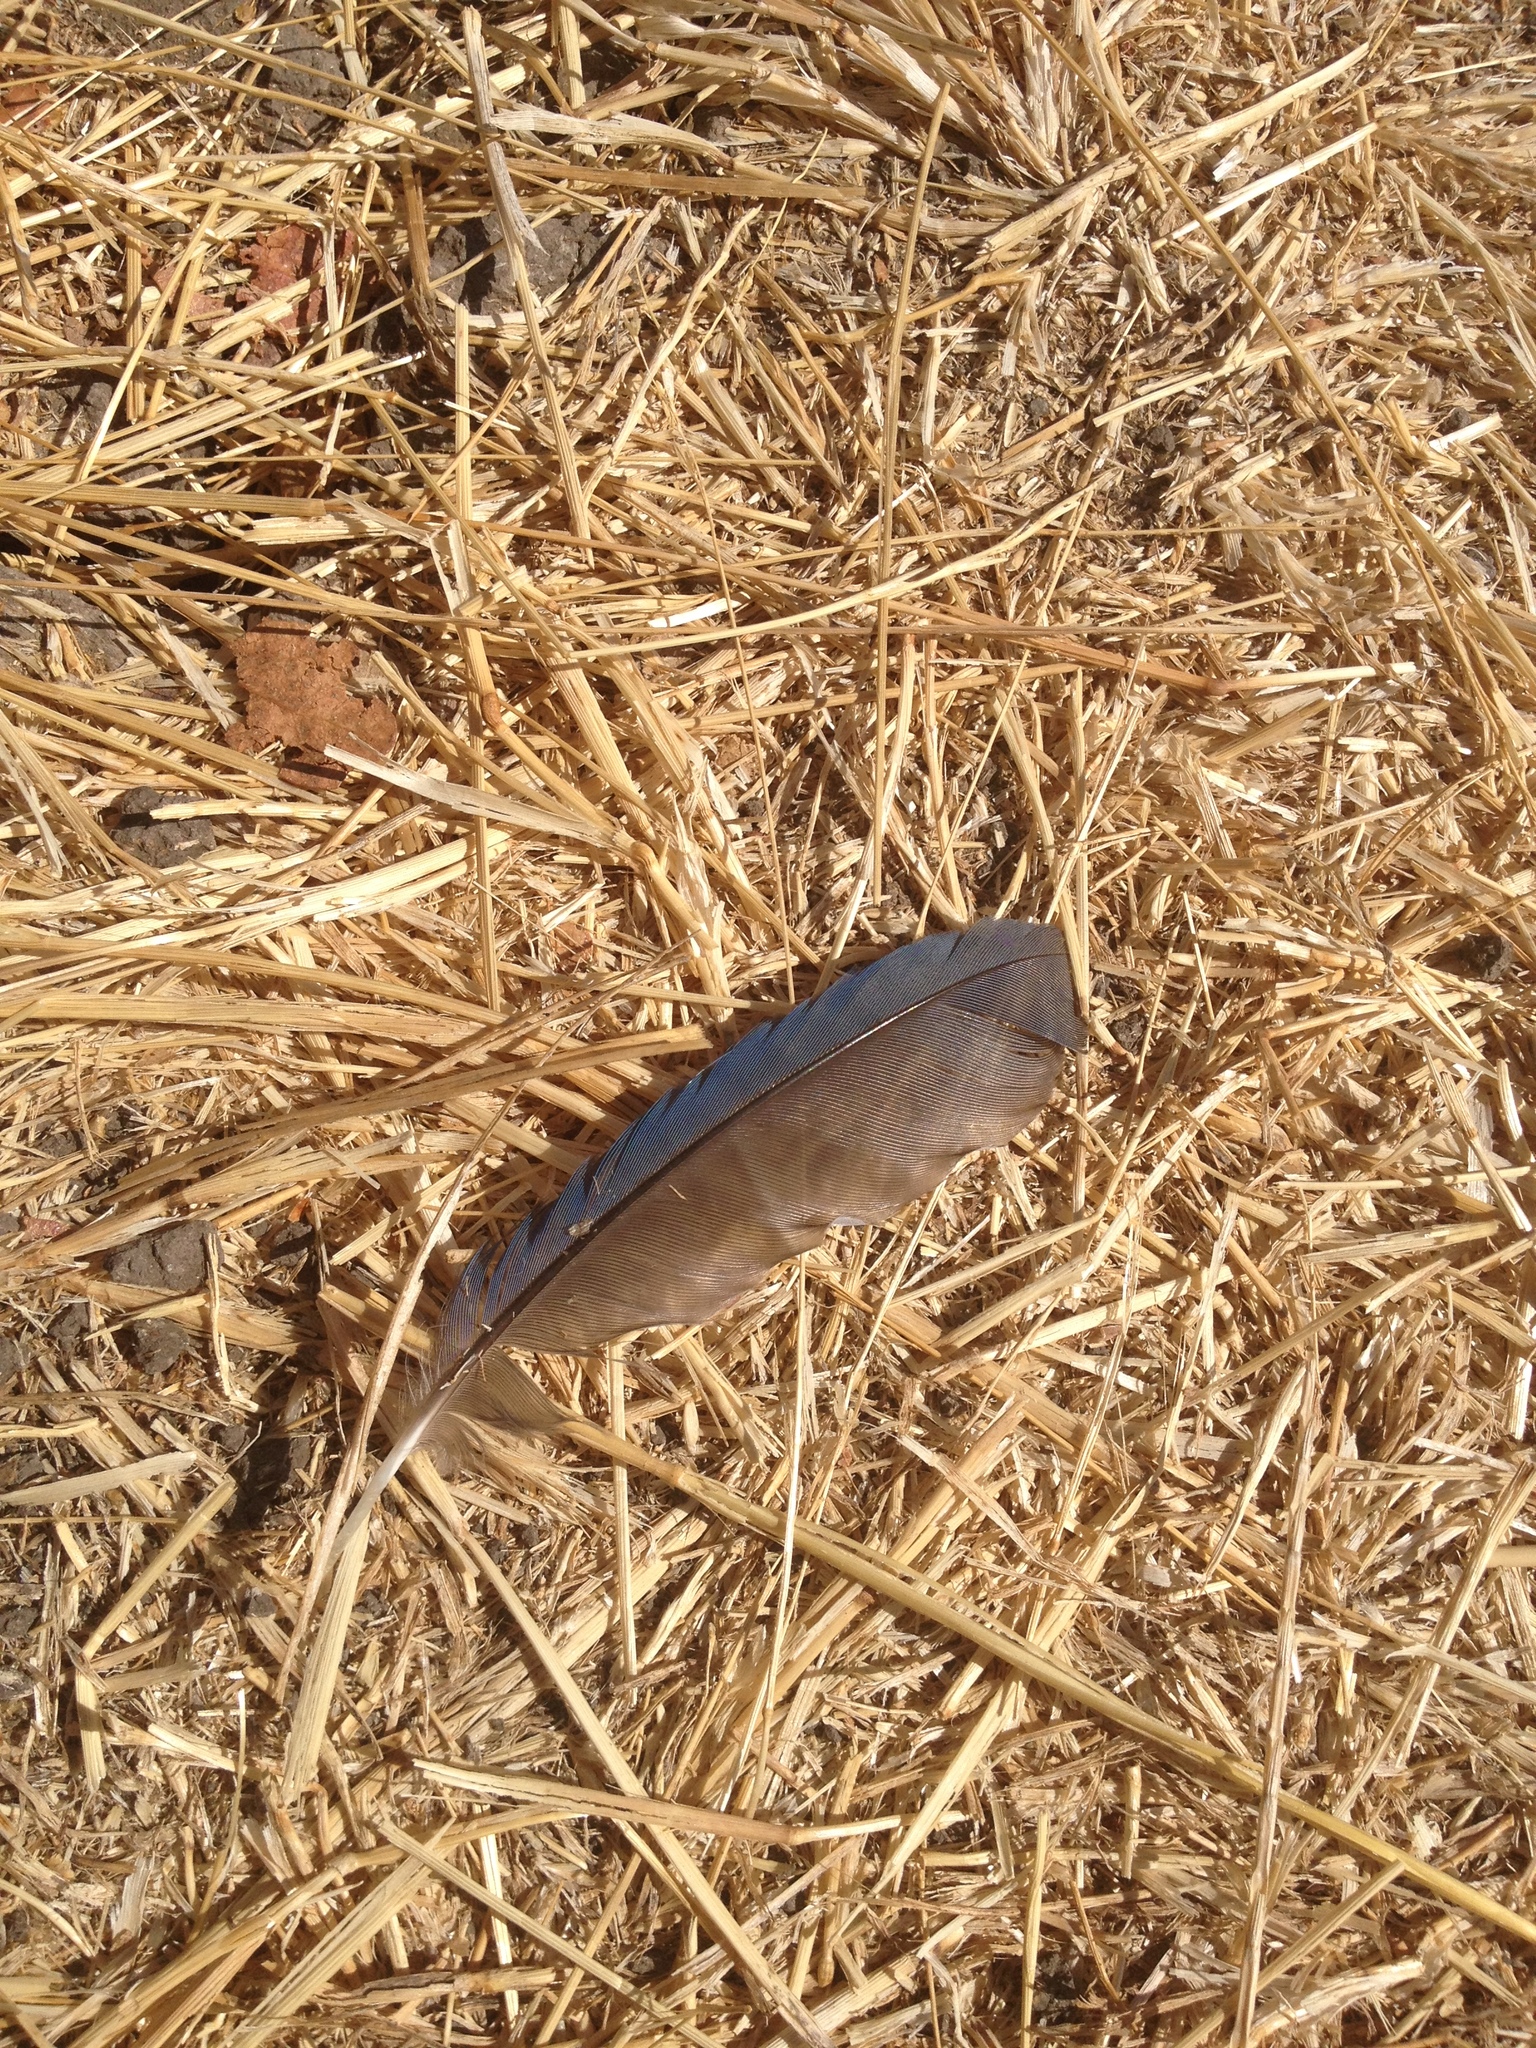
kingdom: Animalia
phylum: Chordata
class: Aves
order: Passeriformes
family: Corvidae
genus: Aphelocoma
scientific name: Aphelocoma californica
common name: California scrub-jay
